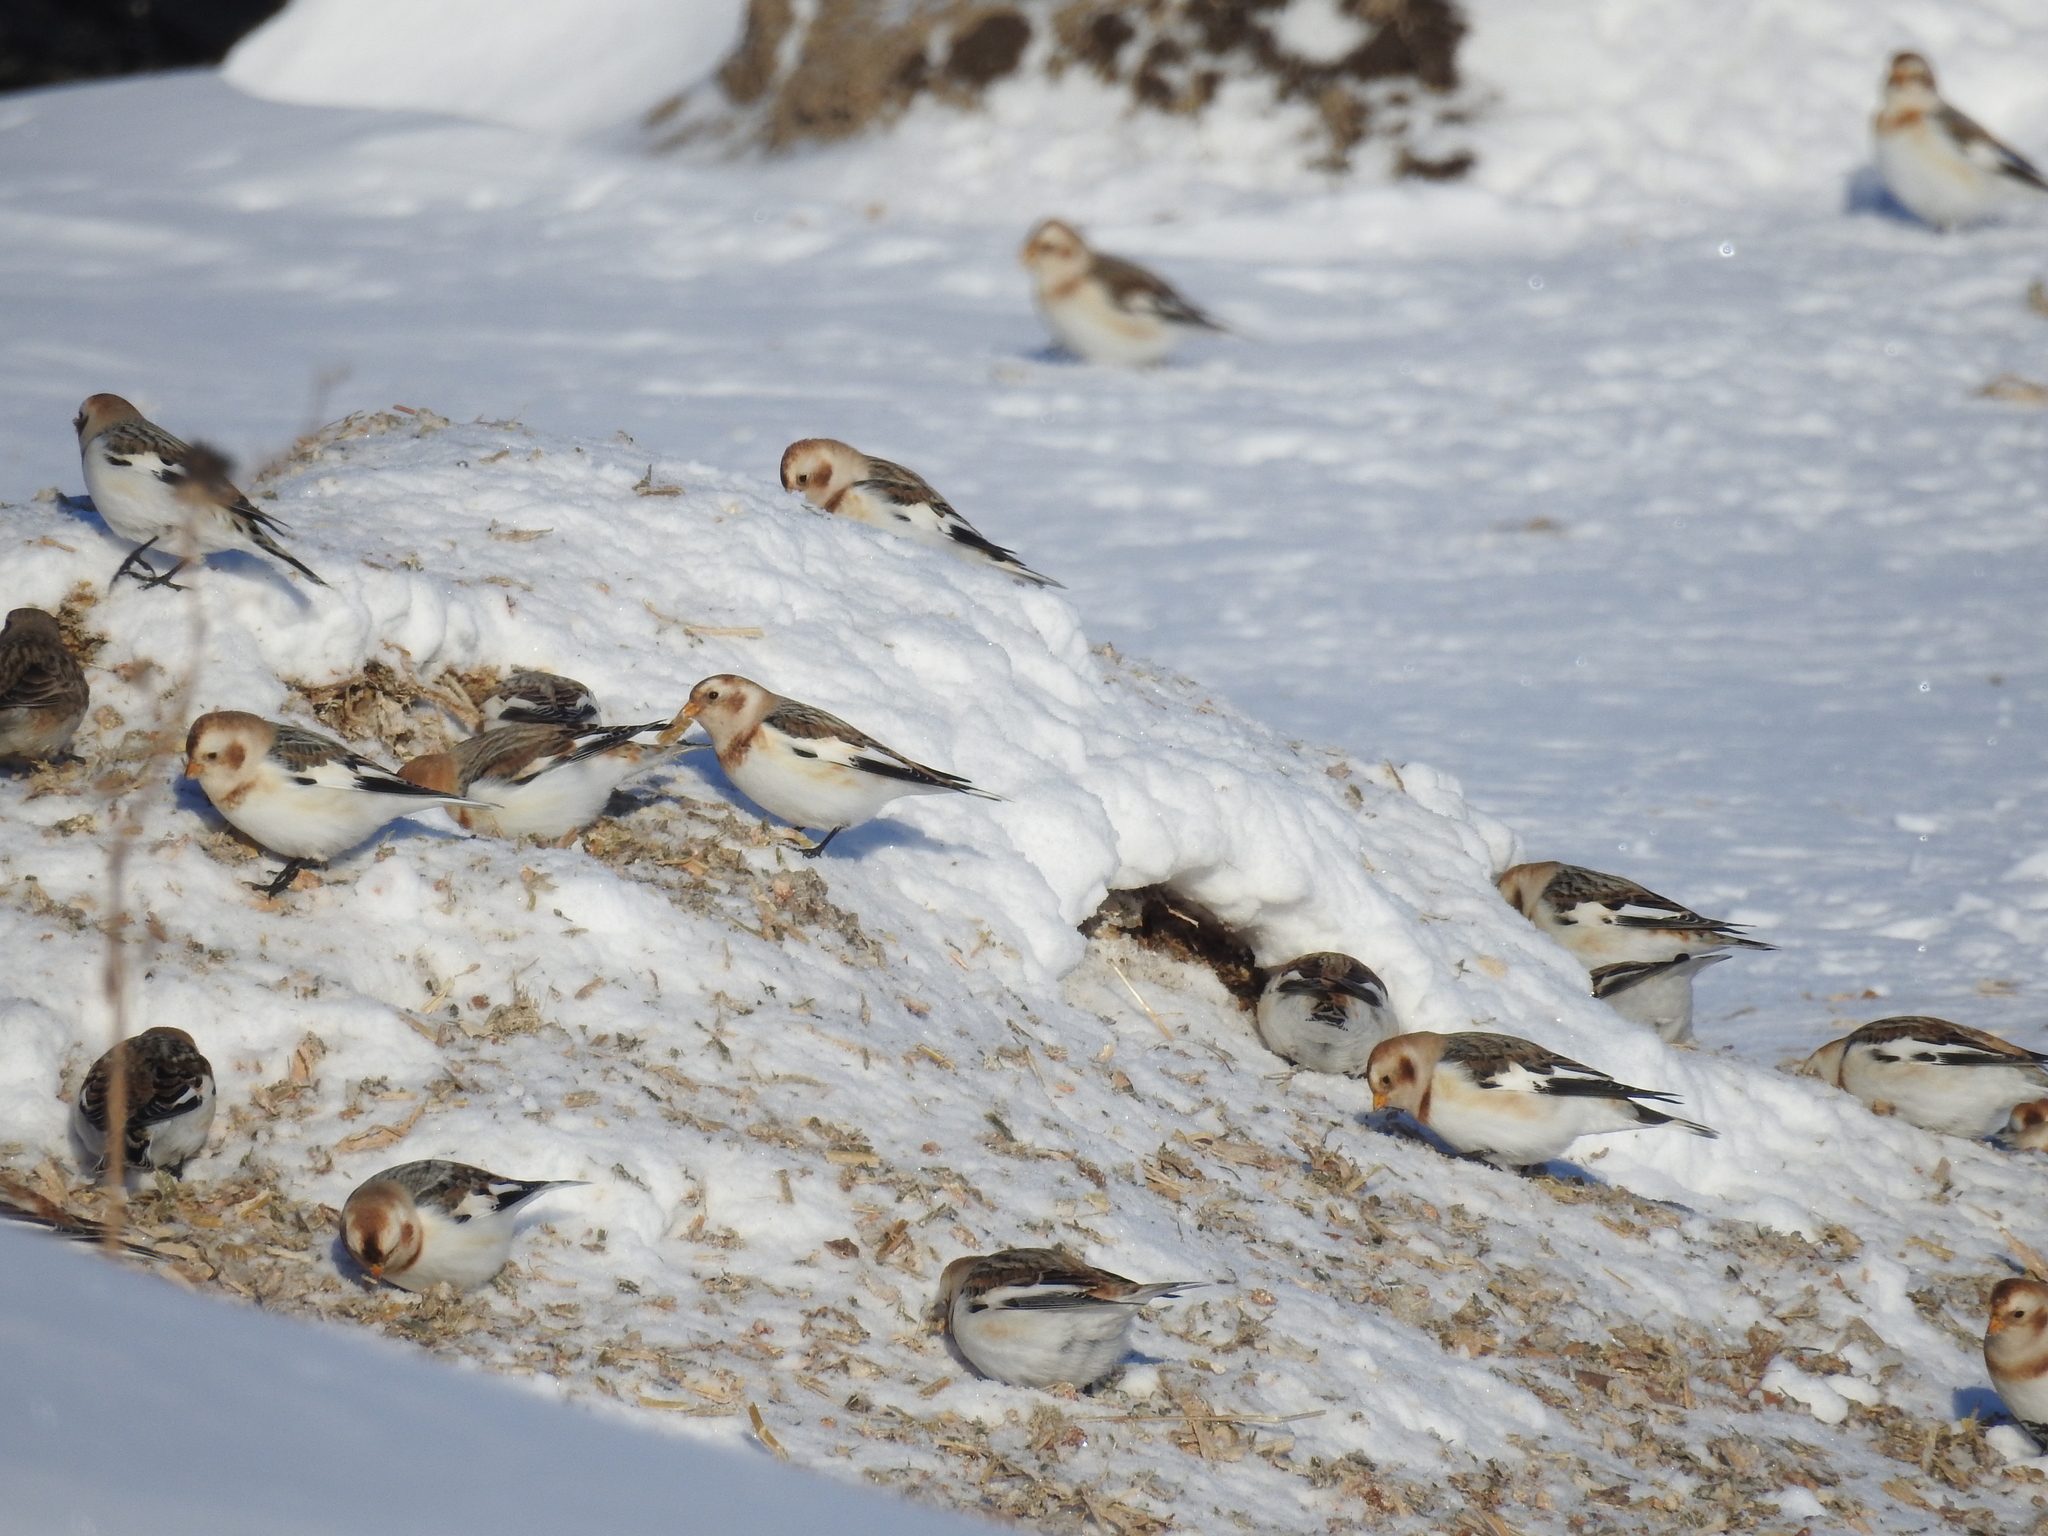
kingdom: Animalia
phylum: Chordata
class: Aves
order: Passeriformes
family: Calcariidae
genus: Plectrophenax
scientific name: Plectrophenax nivalis
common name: Snow bunting
